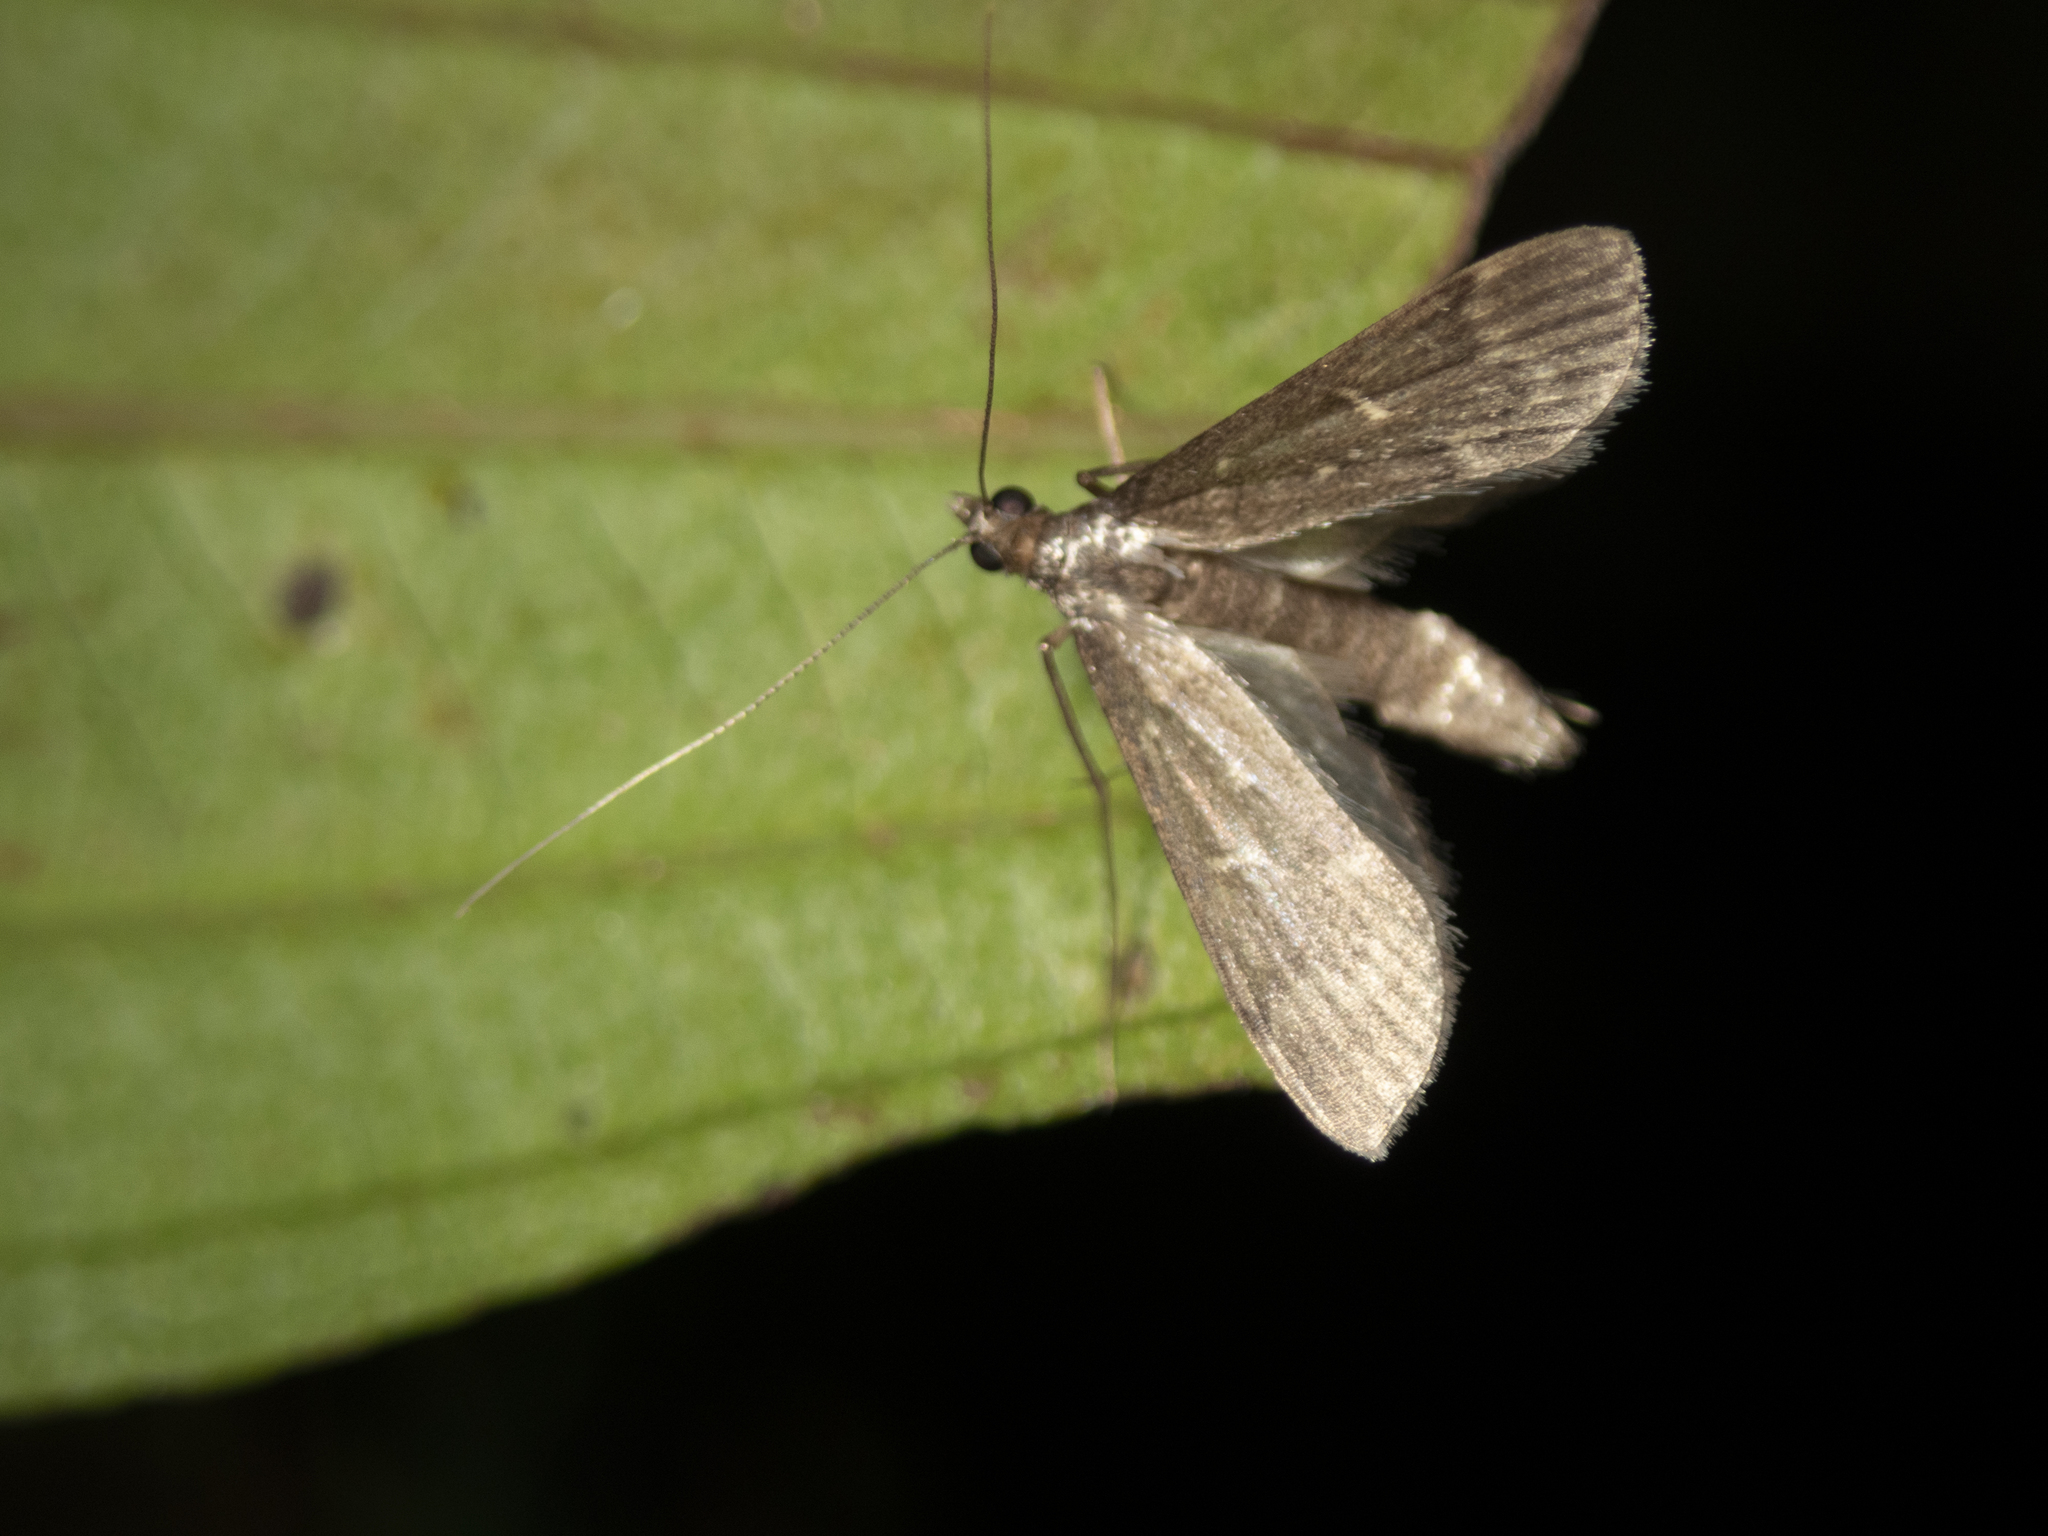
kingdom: Animalia
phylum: Arthropoda
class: Insecta
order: Lepidoptera
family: Crambidae
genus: Symmoracma
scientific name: Symmoracma minoralis
